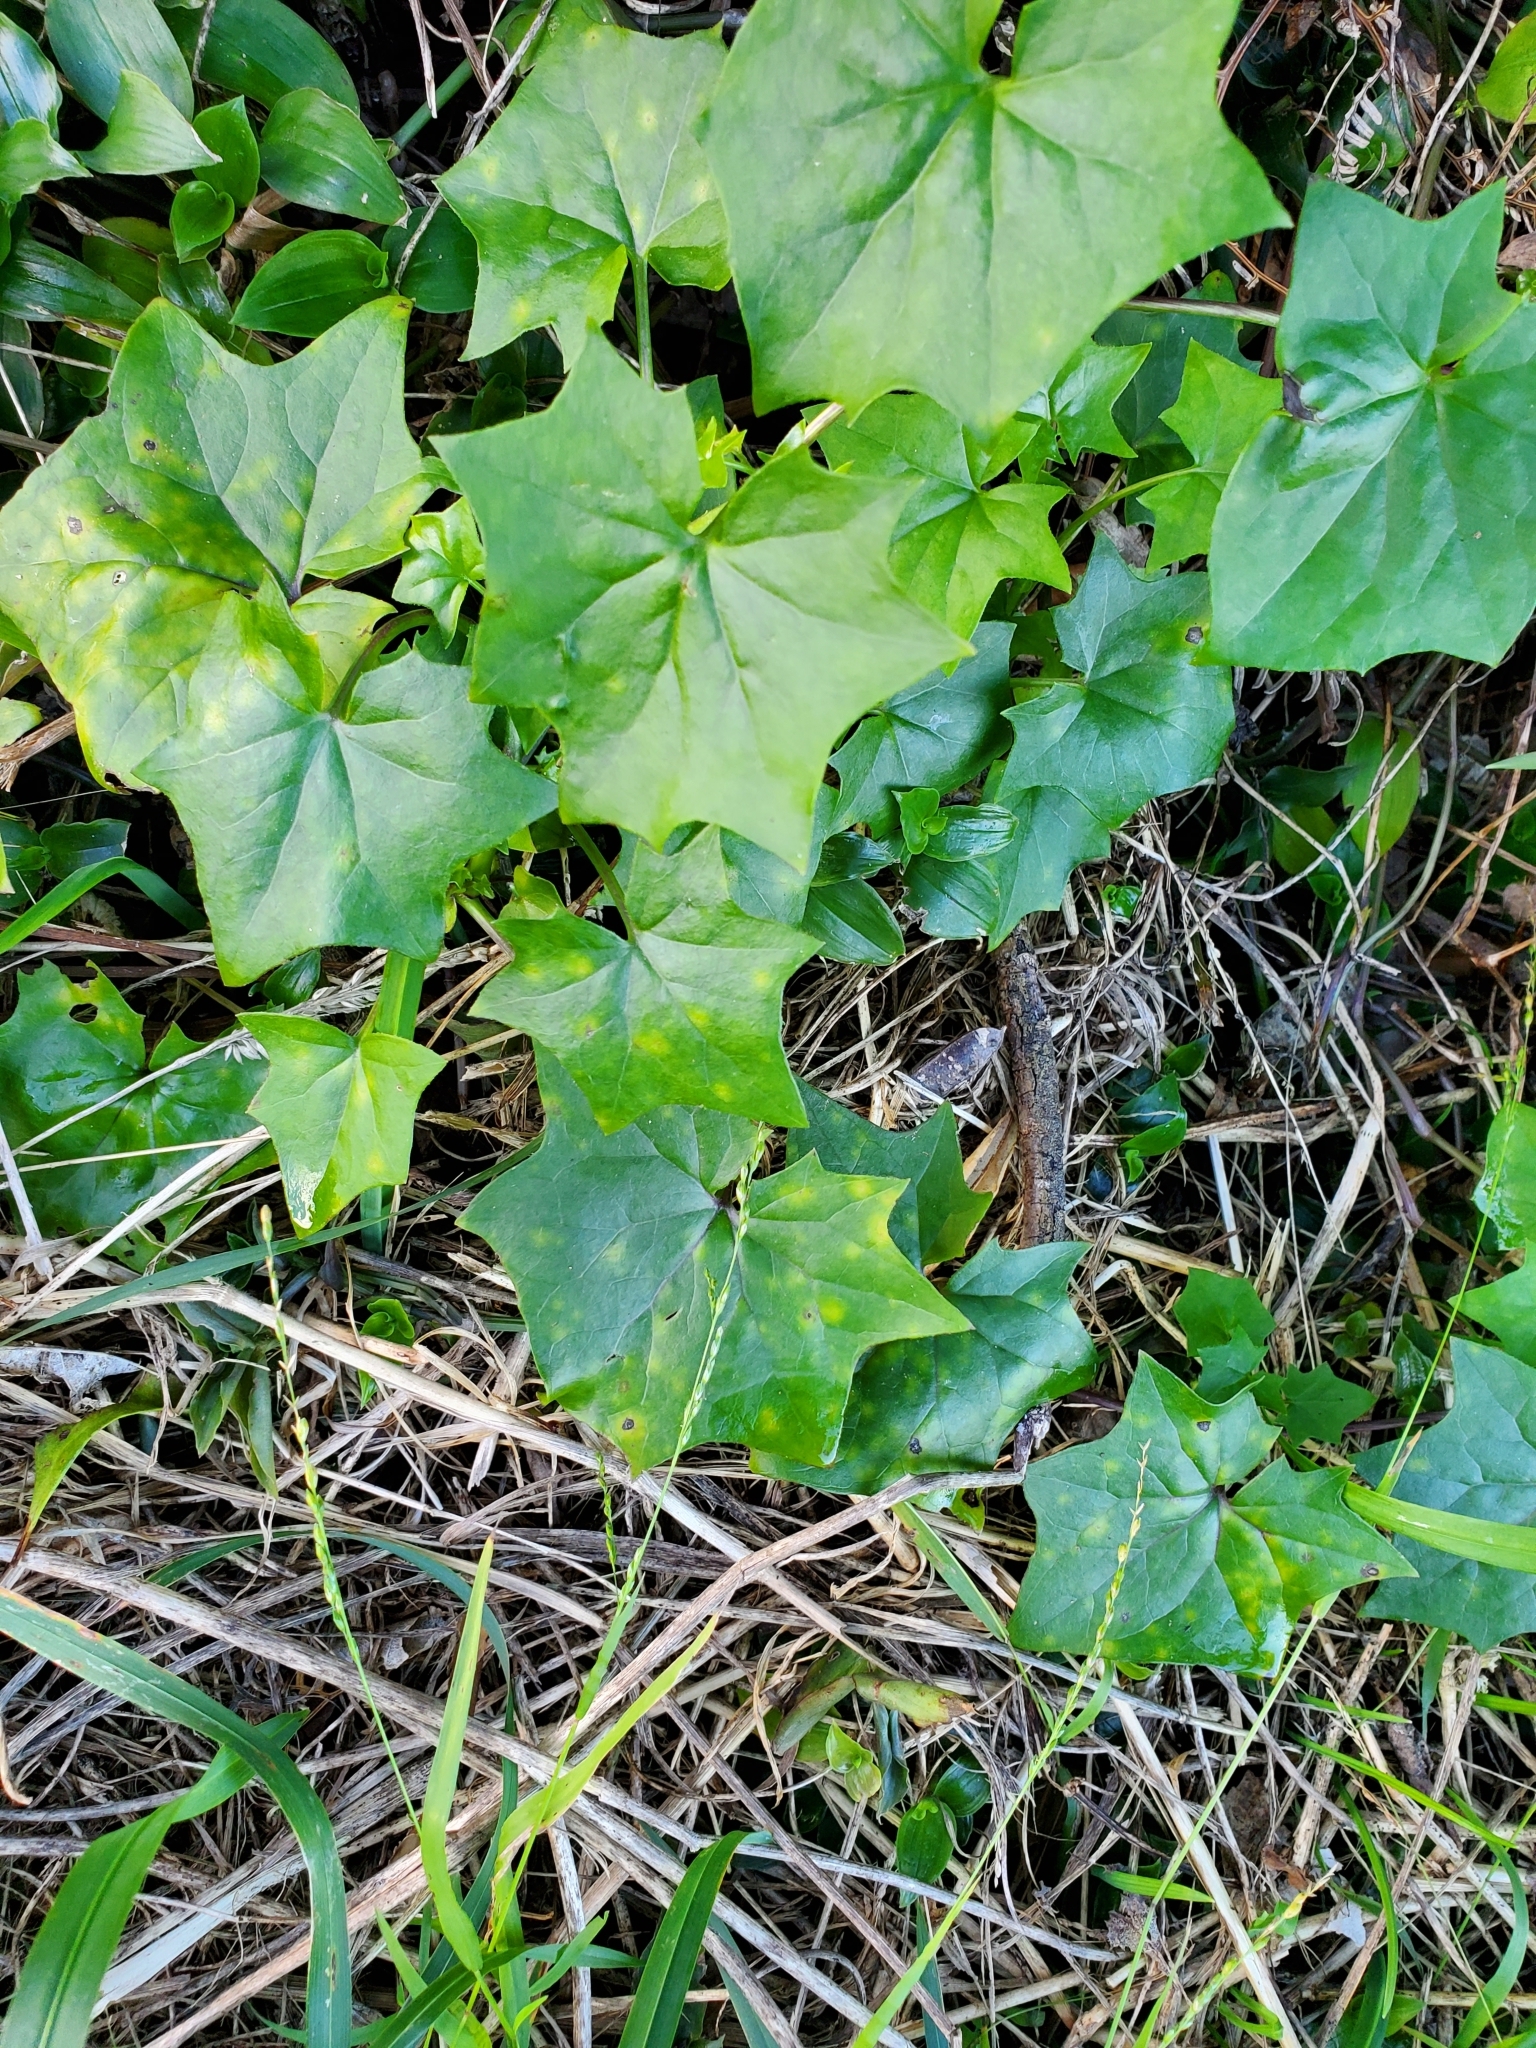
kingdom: Plantae
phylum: Tracheophyta
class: Magnoliopsida
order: Asterales
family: Asteraceae
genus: Delairea
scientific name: Delairea odorata
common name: Cape-ivy
